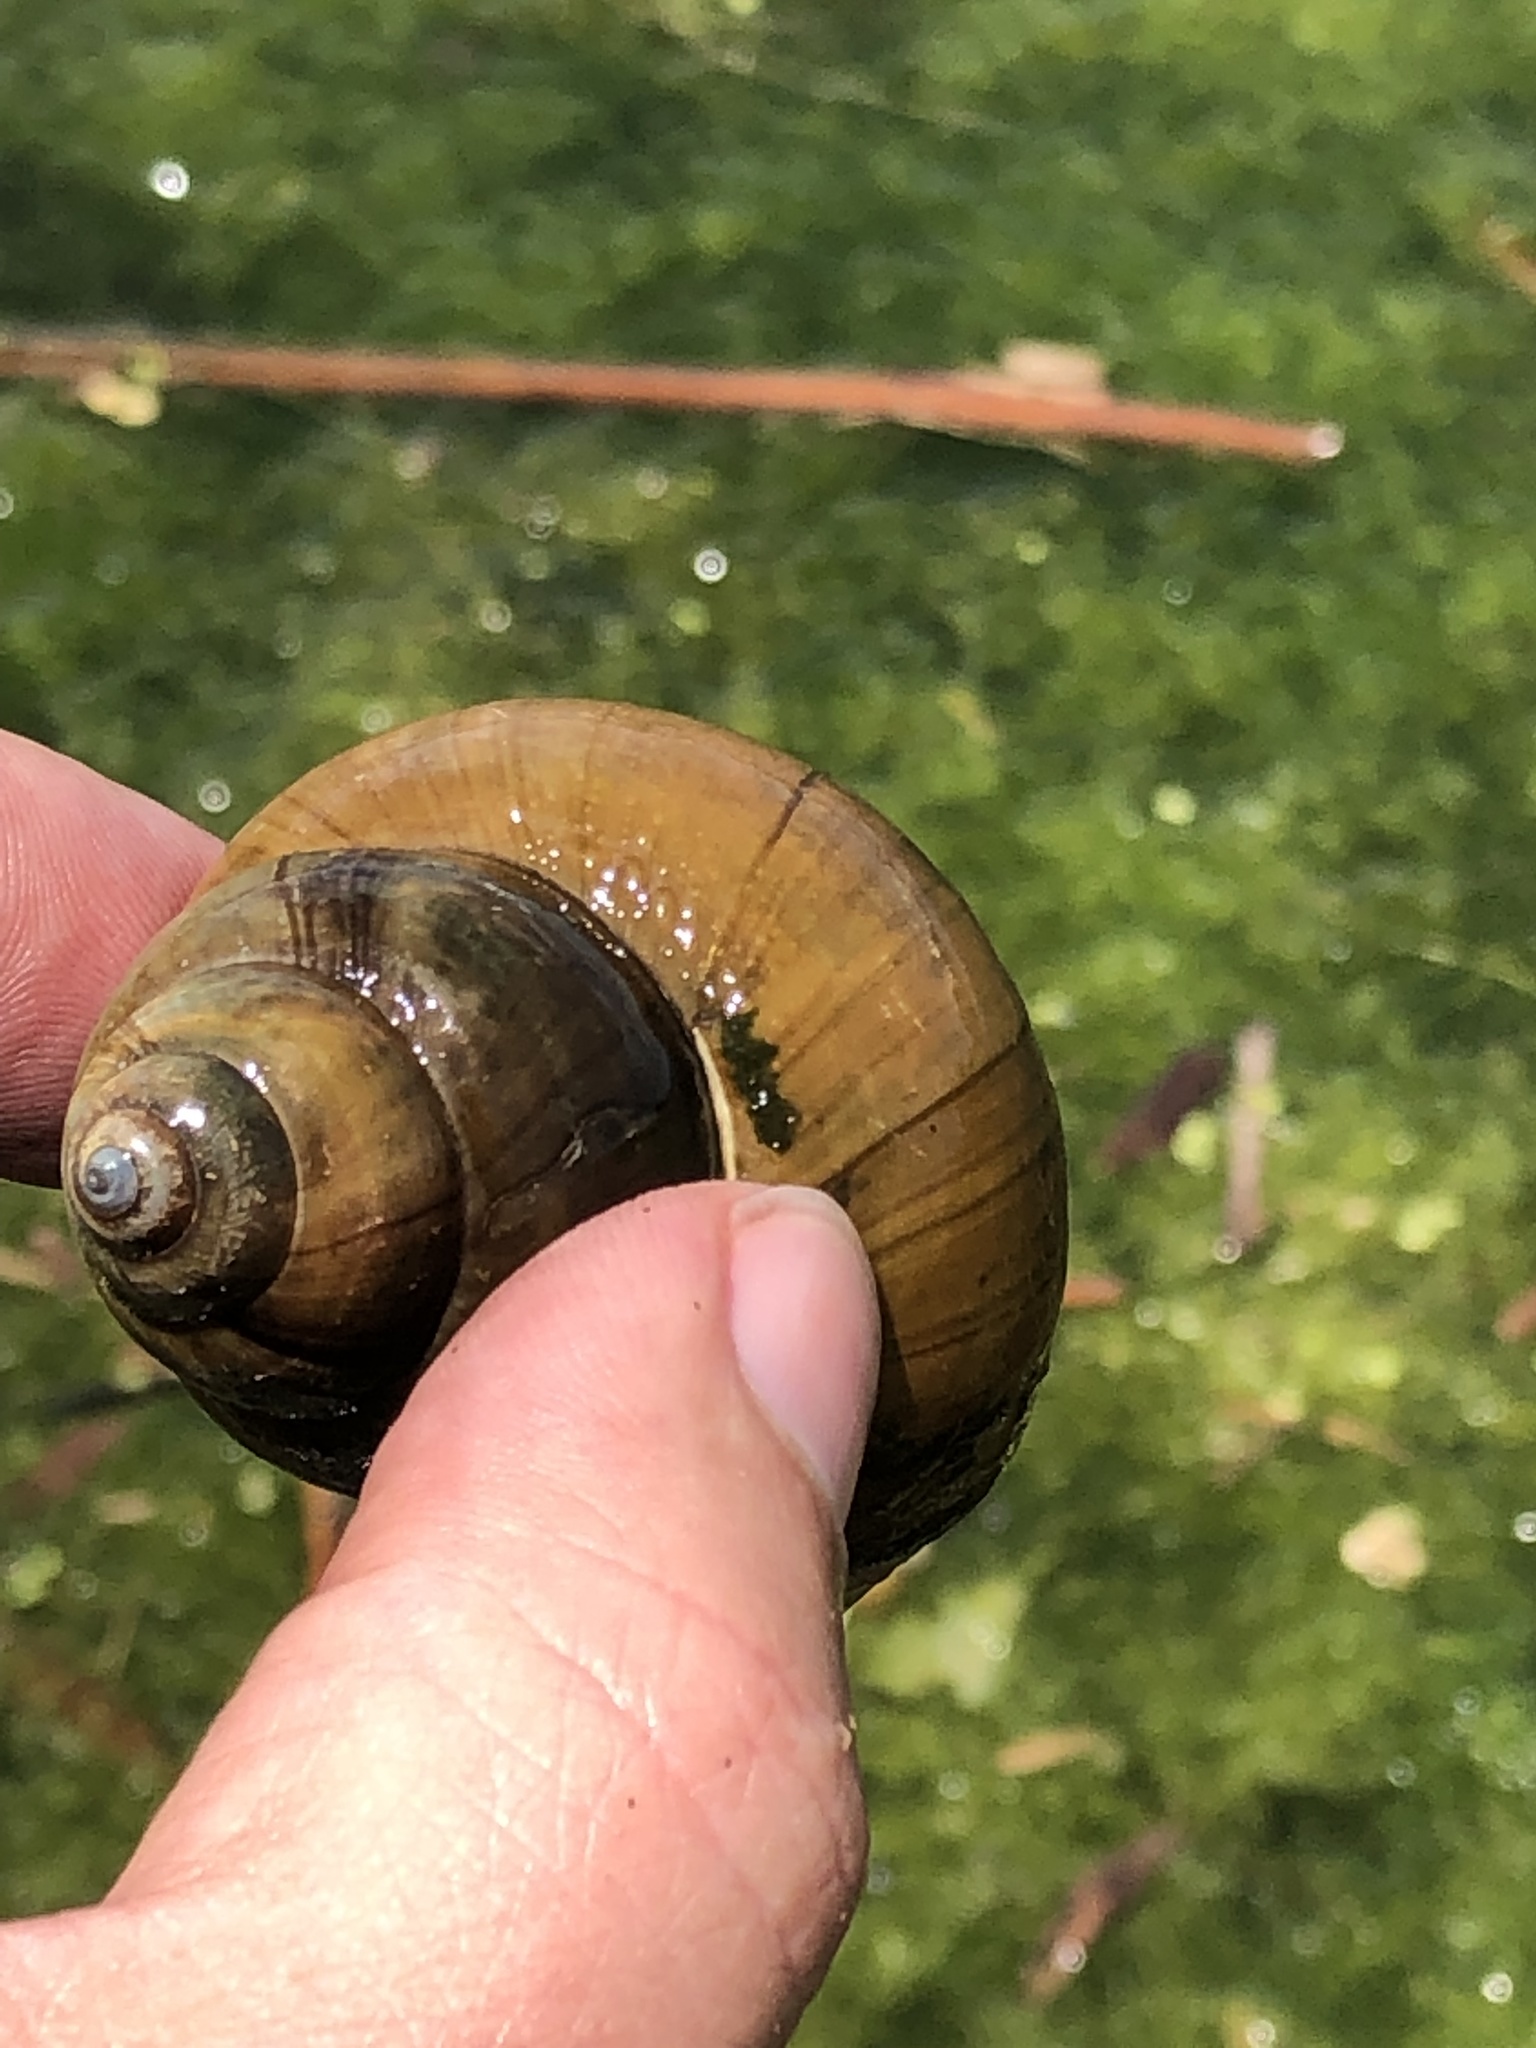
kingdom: Animalia
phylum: Mollusca
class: Gastropoda
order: Architaenioglossa
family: Viviparidae
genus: Cipangopaludina
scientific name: Cipangopaludina chinensis
